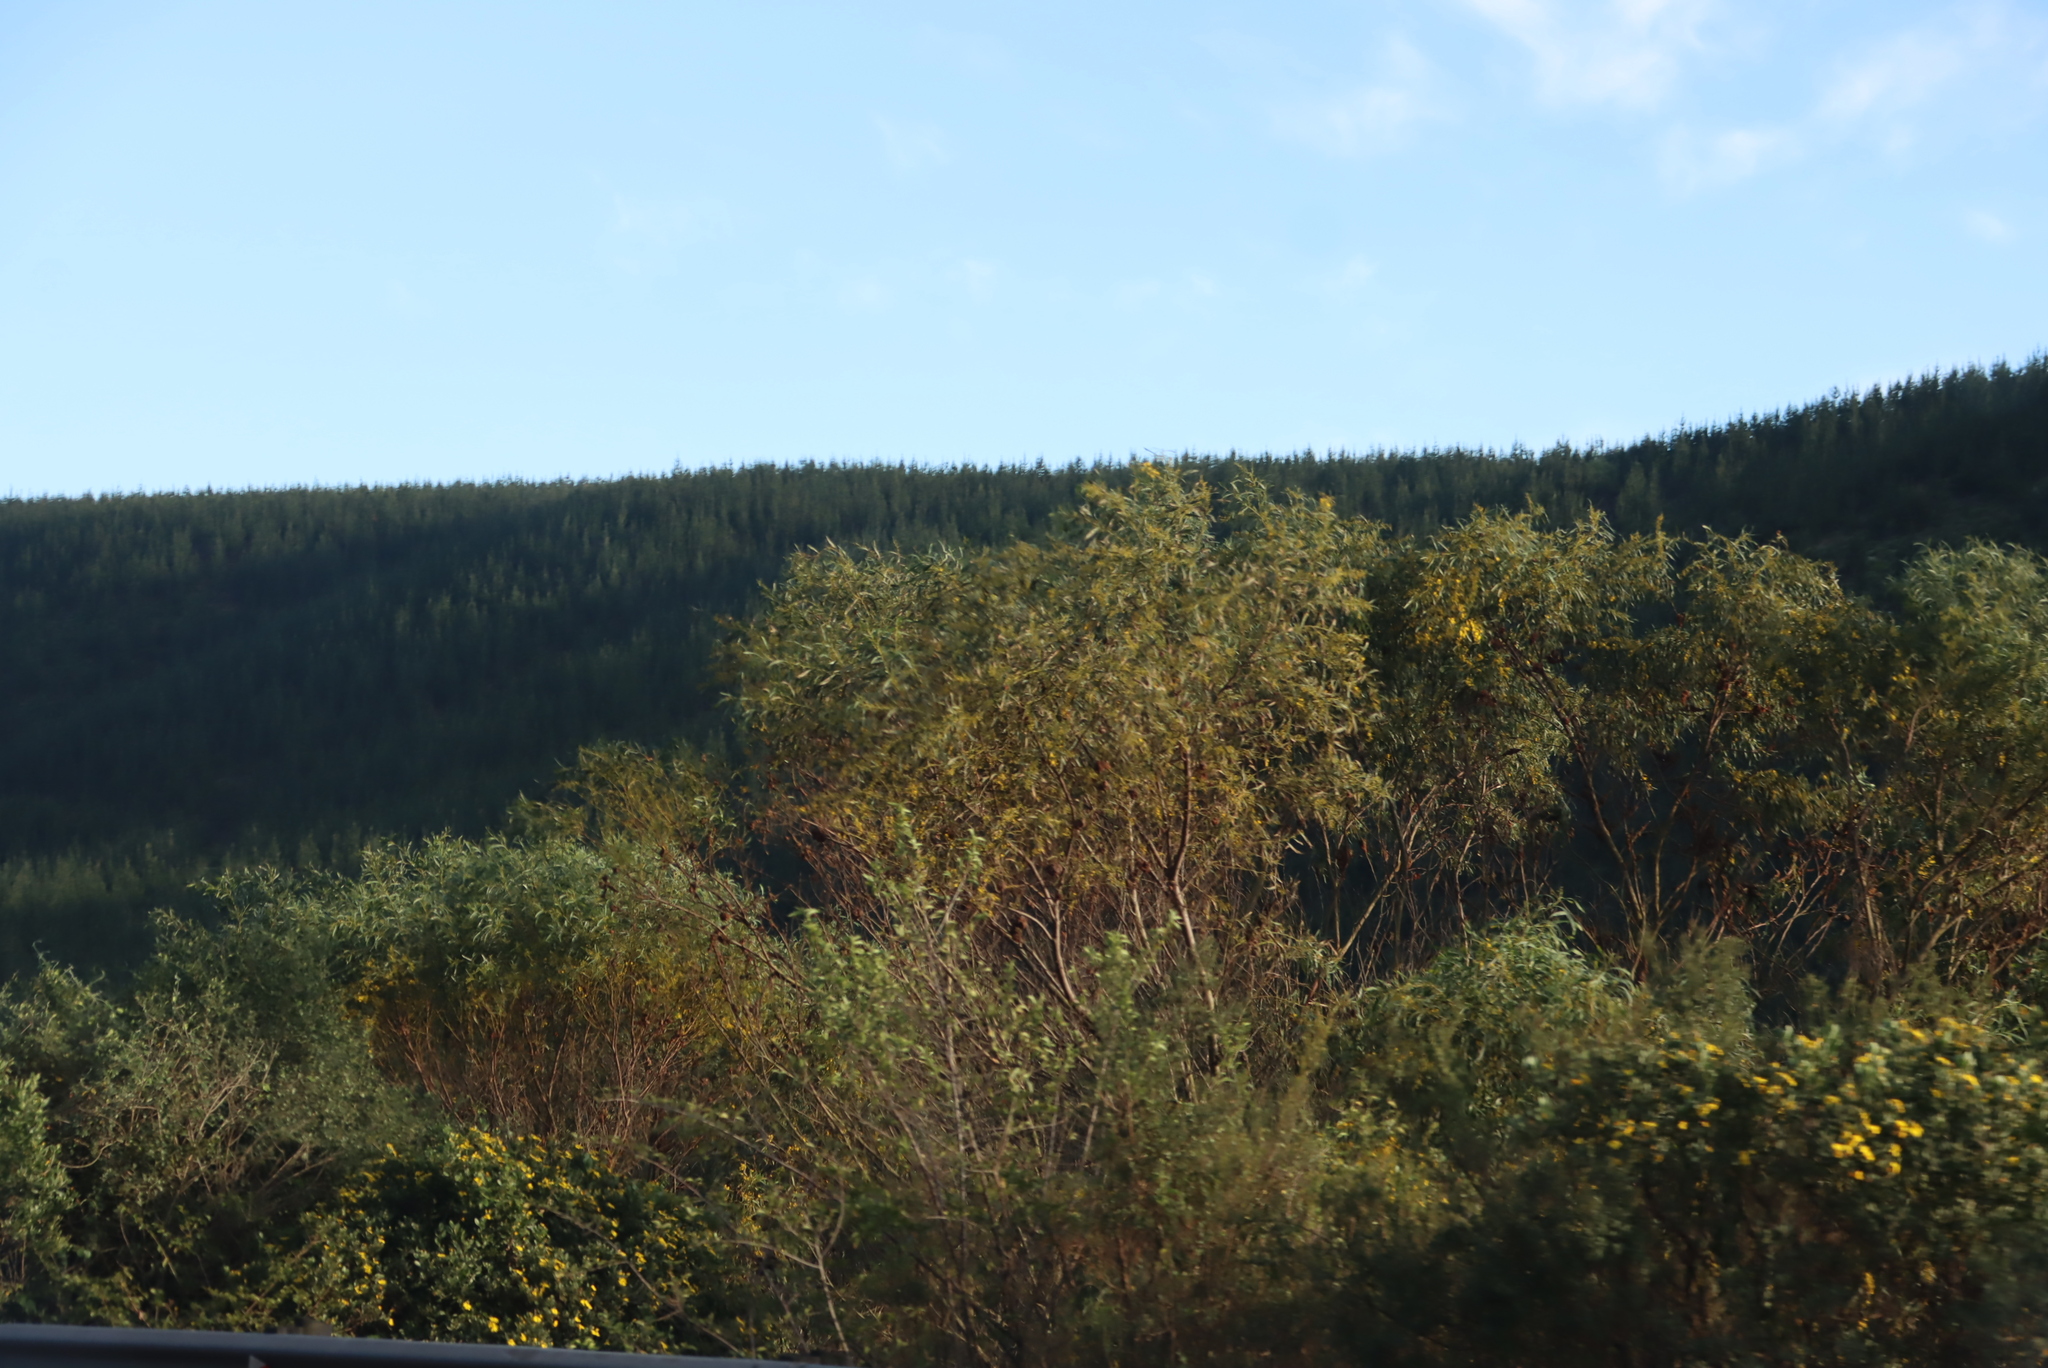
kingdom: Plantae
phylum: Tracheophyta
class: Magnoliopsida
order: Fabales
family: Fabaceae
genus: Acacia
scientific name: Acacia saligna
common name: Orange wattle
